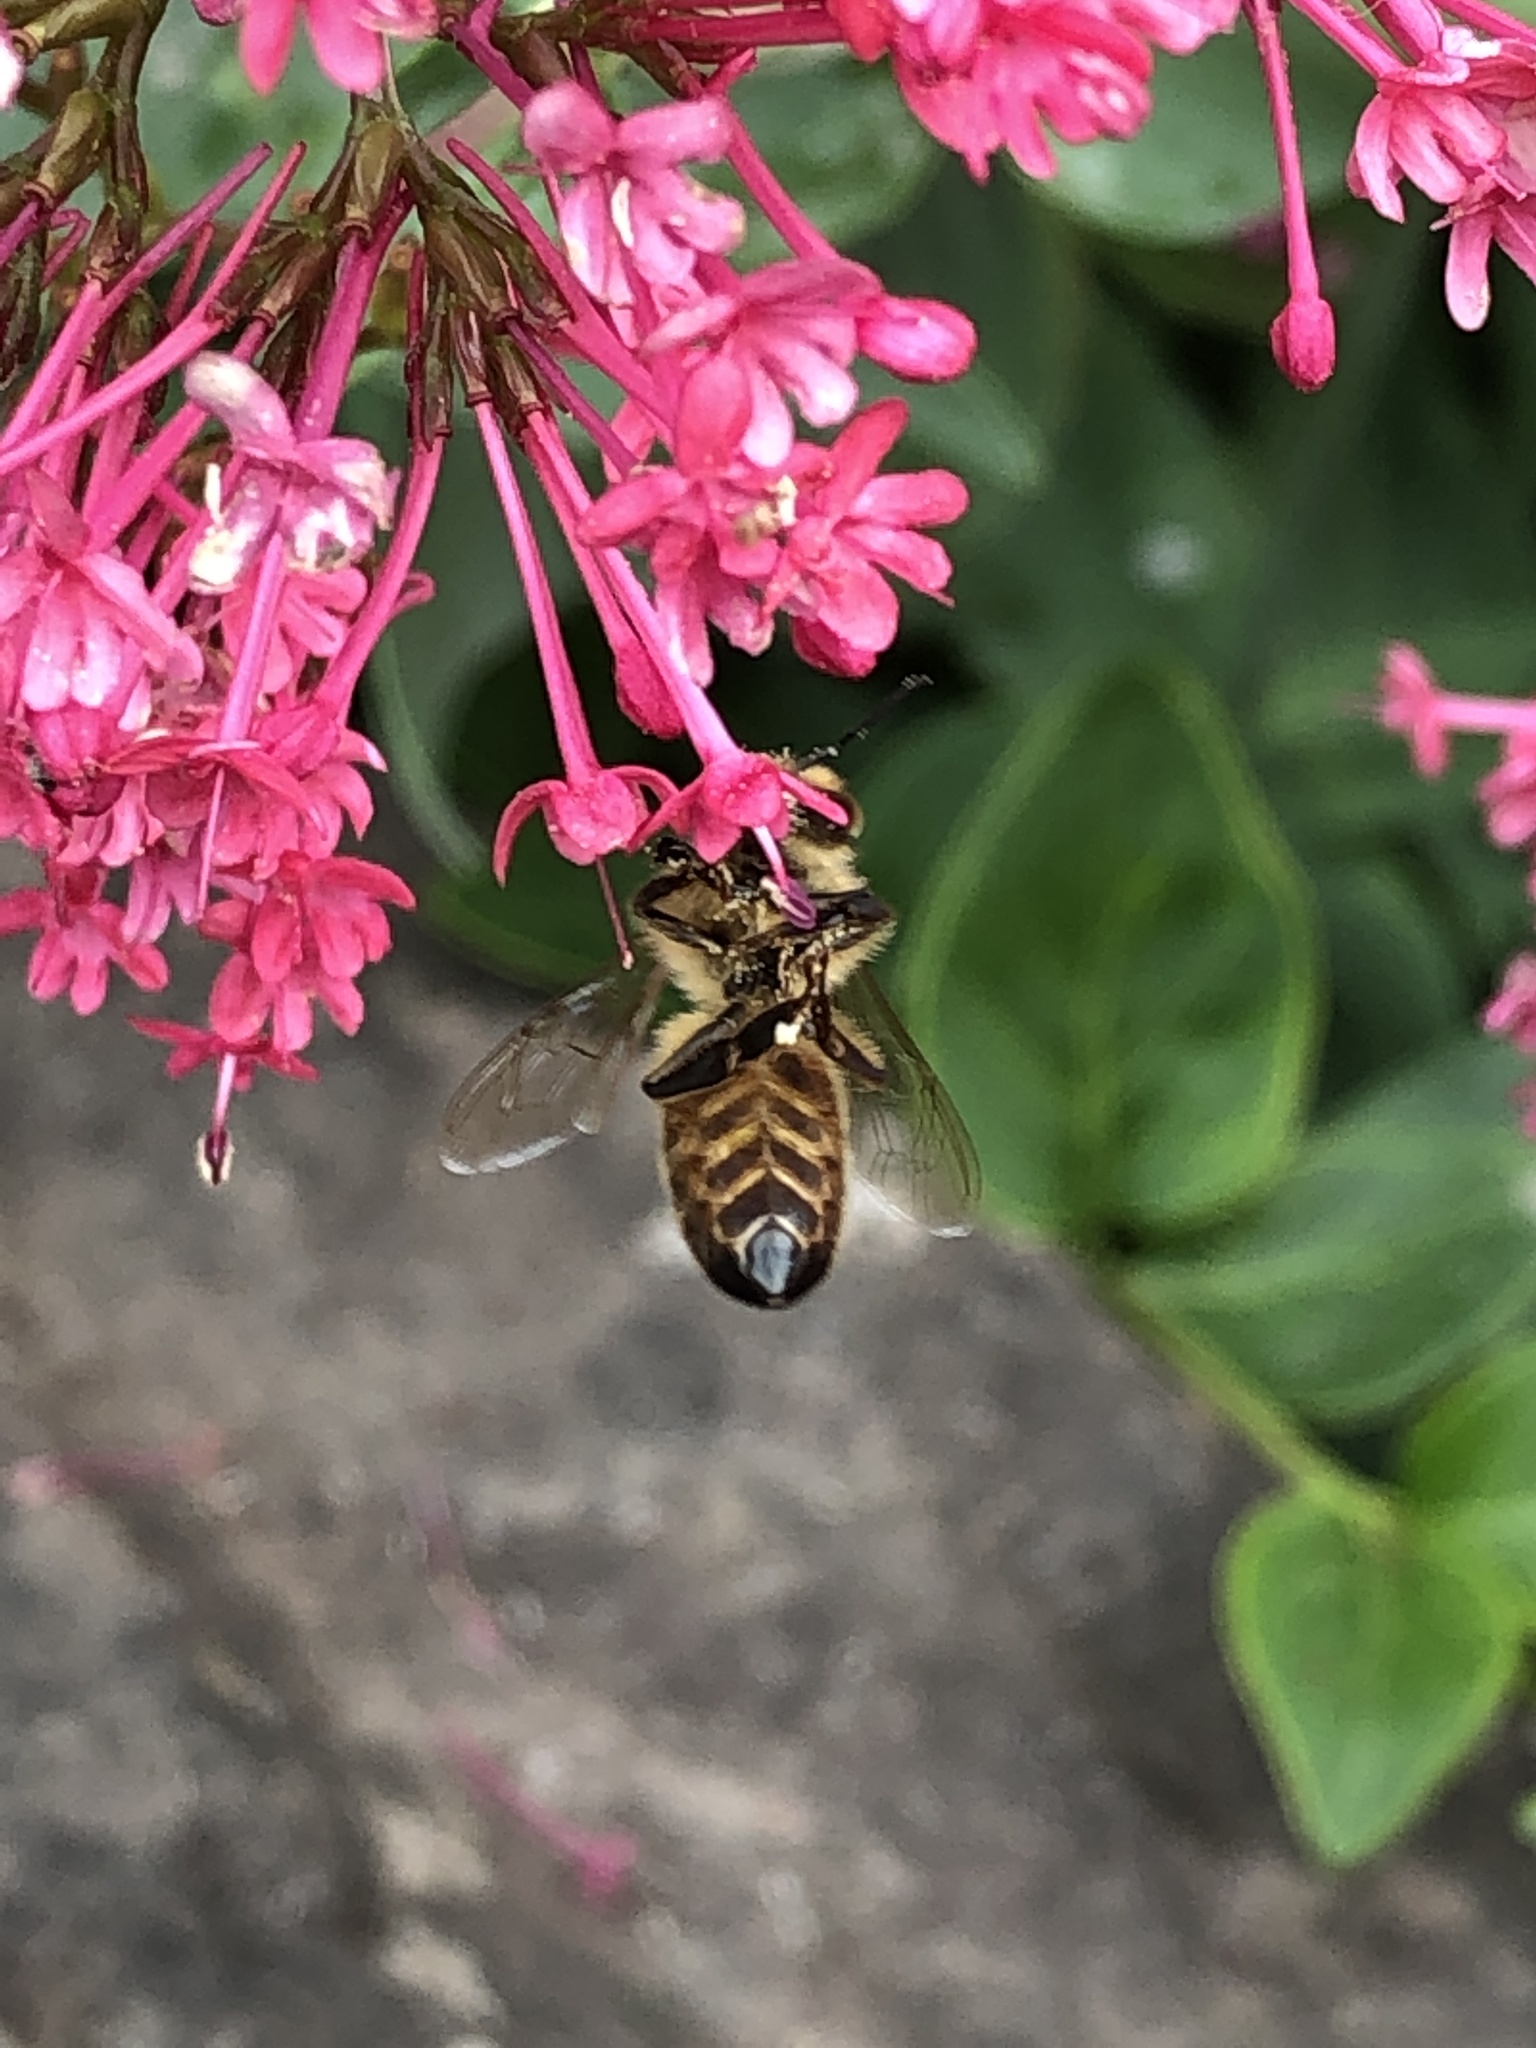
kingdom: Animalia
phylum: Arthropoda
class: Insecta
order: Hymenoptera
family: Apidae
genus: Apis
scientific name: Apis mellifera
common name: Honey bee
